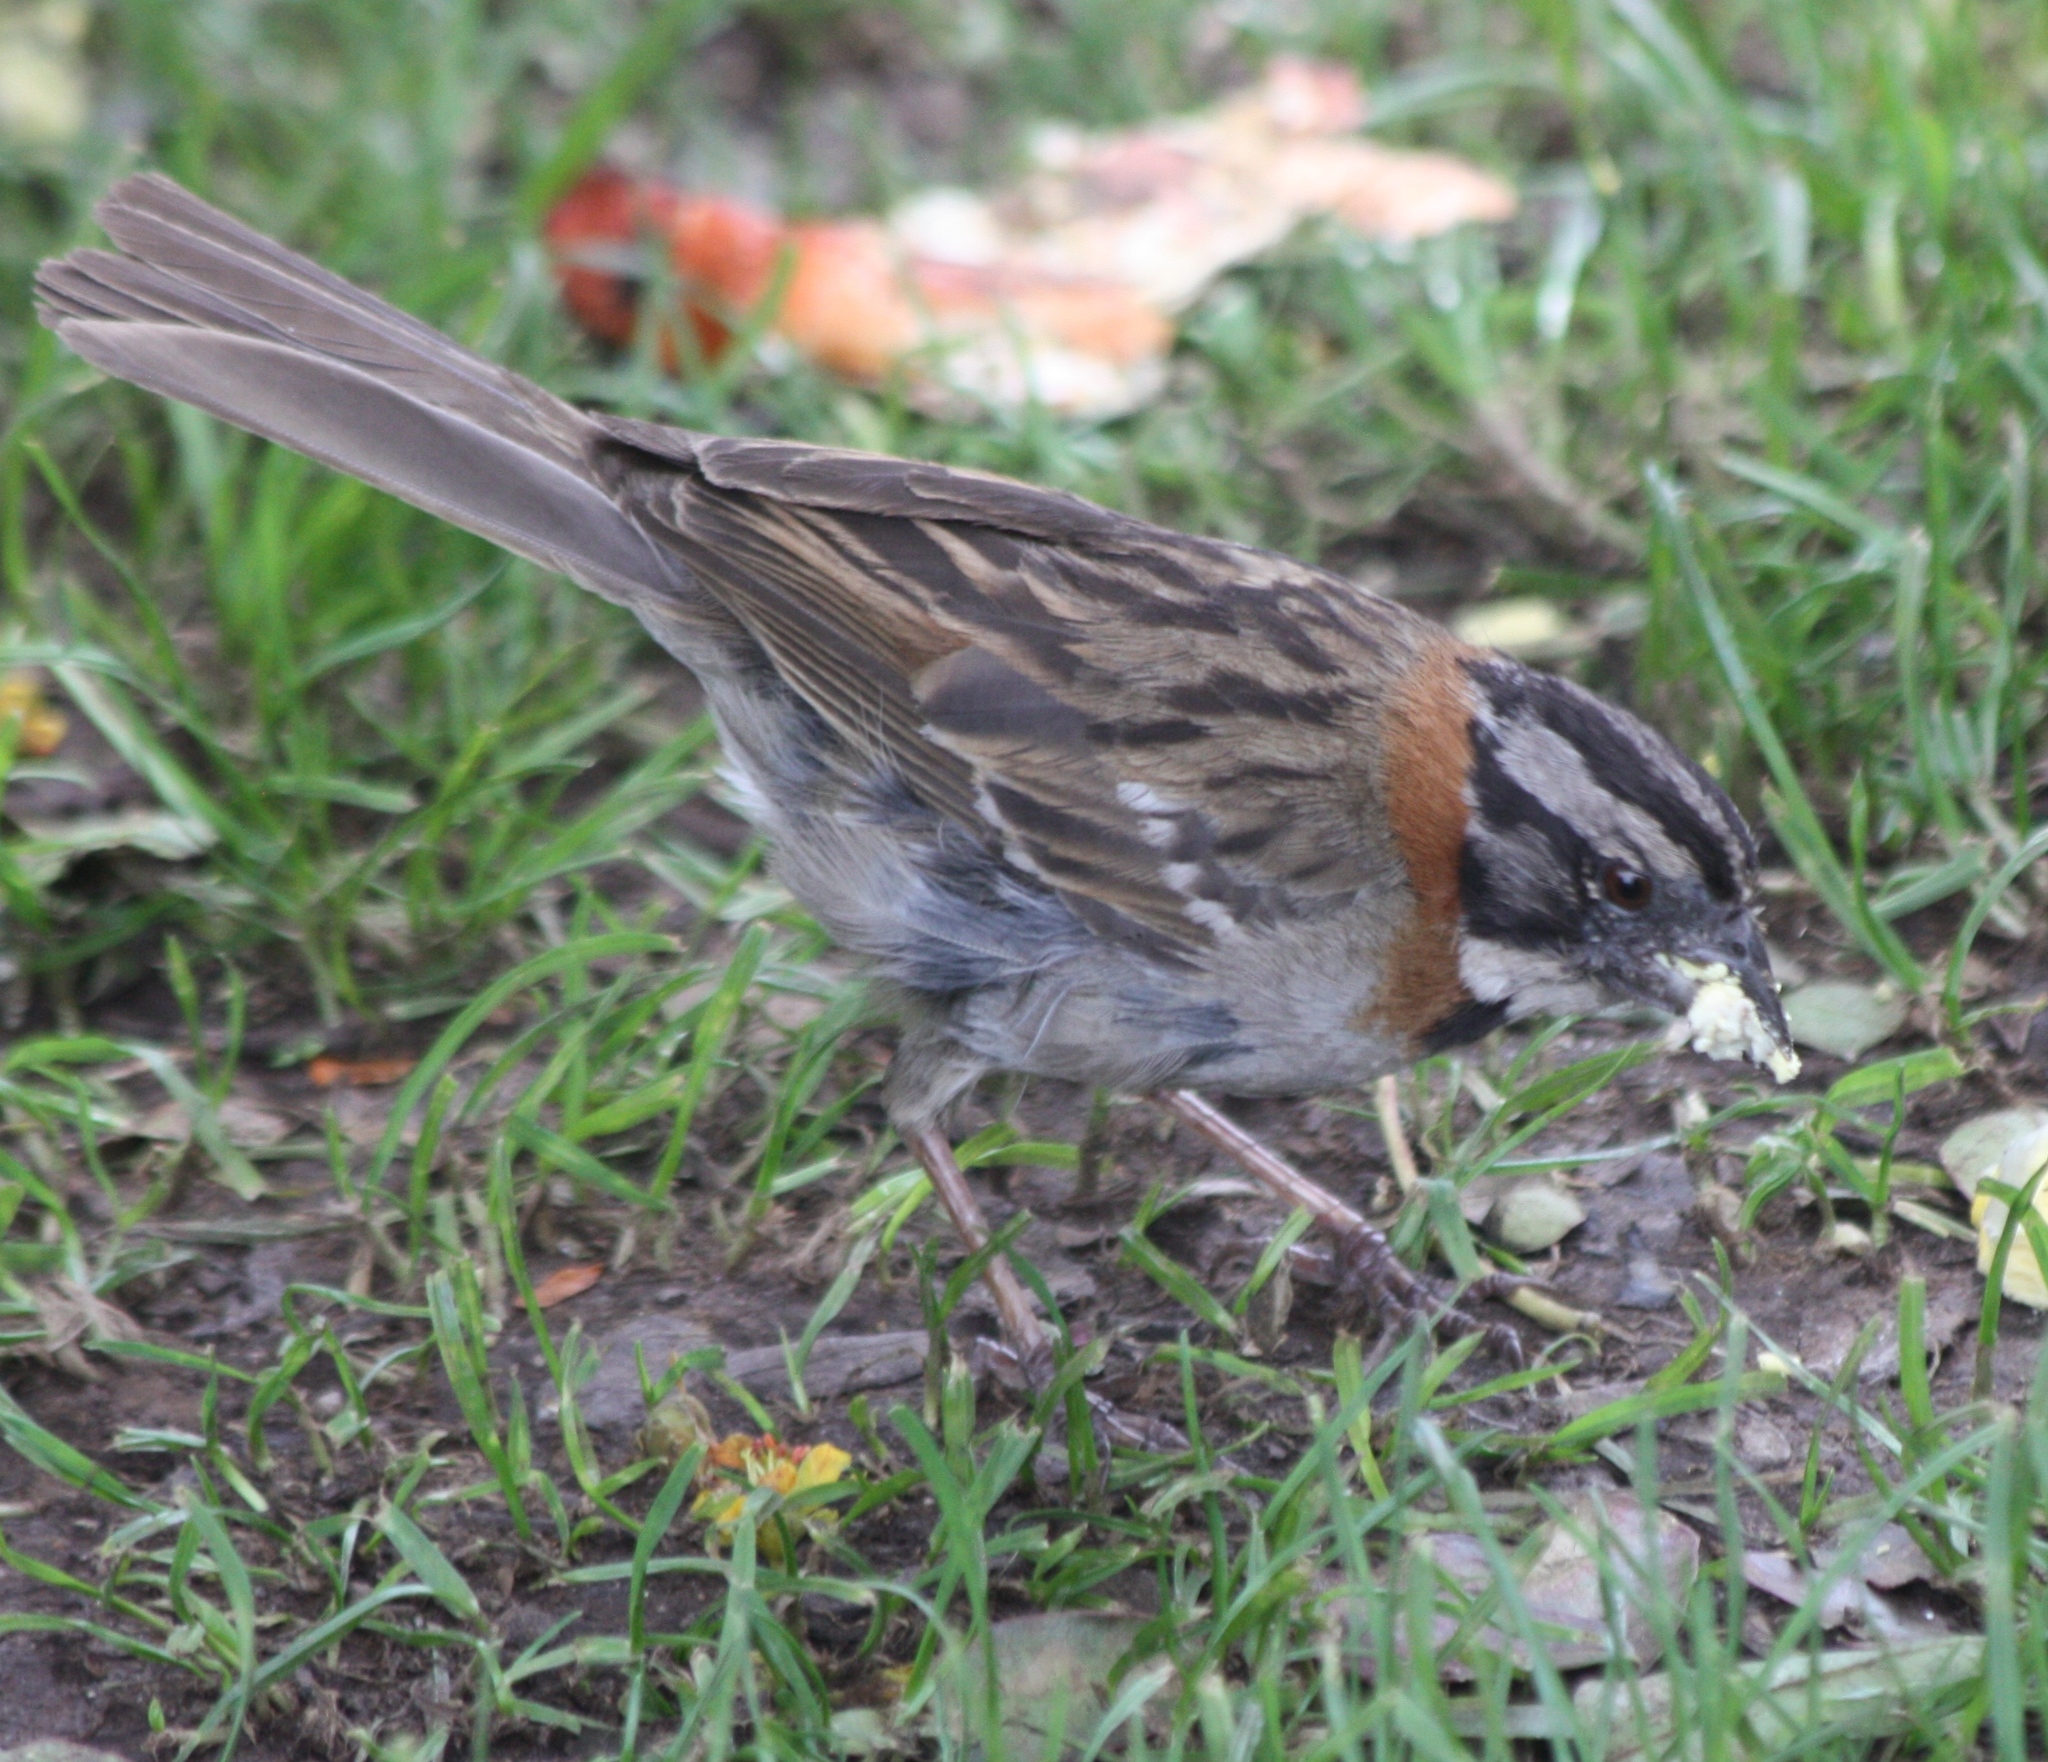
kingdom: Animalia
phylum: Chordata
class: Aves
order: Passeriformes
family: Passerellidae
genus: Zonotrichia
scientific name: Zonotrichia capensis
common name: Rufous-collared sparrow
